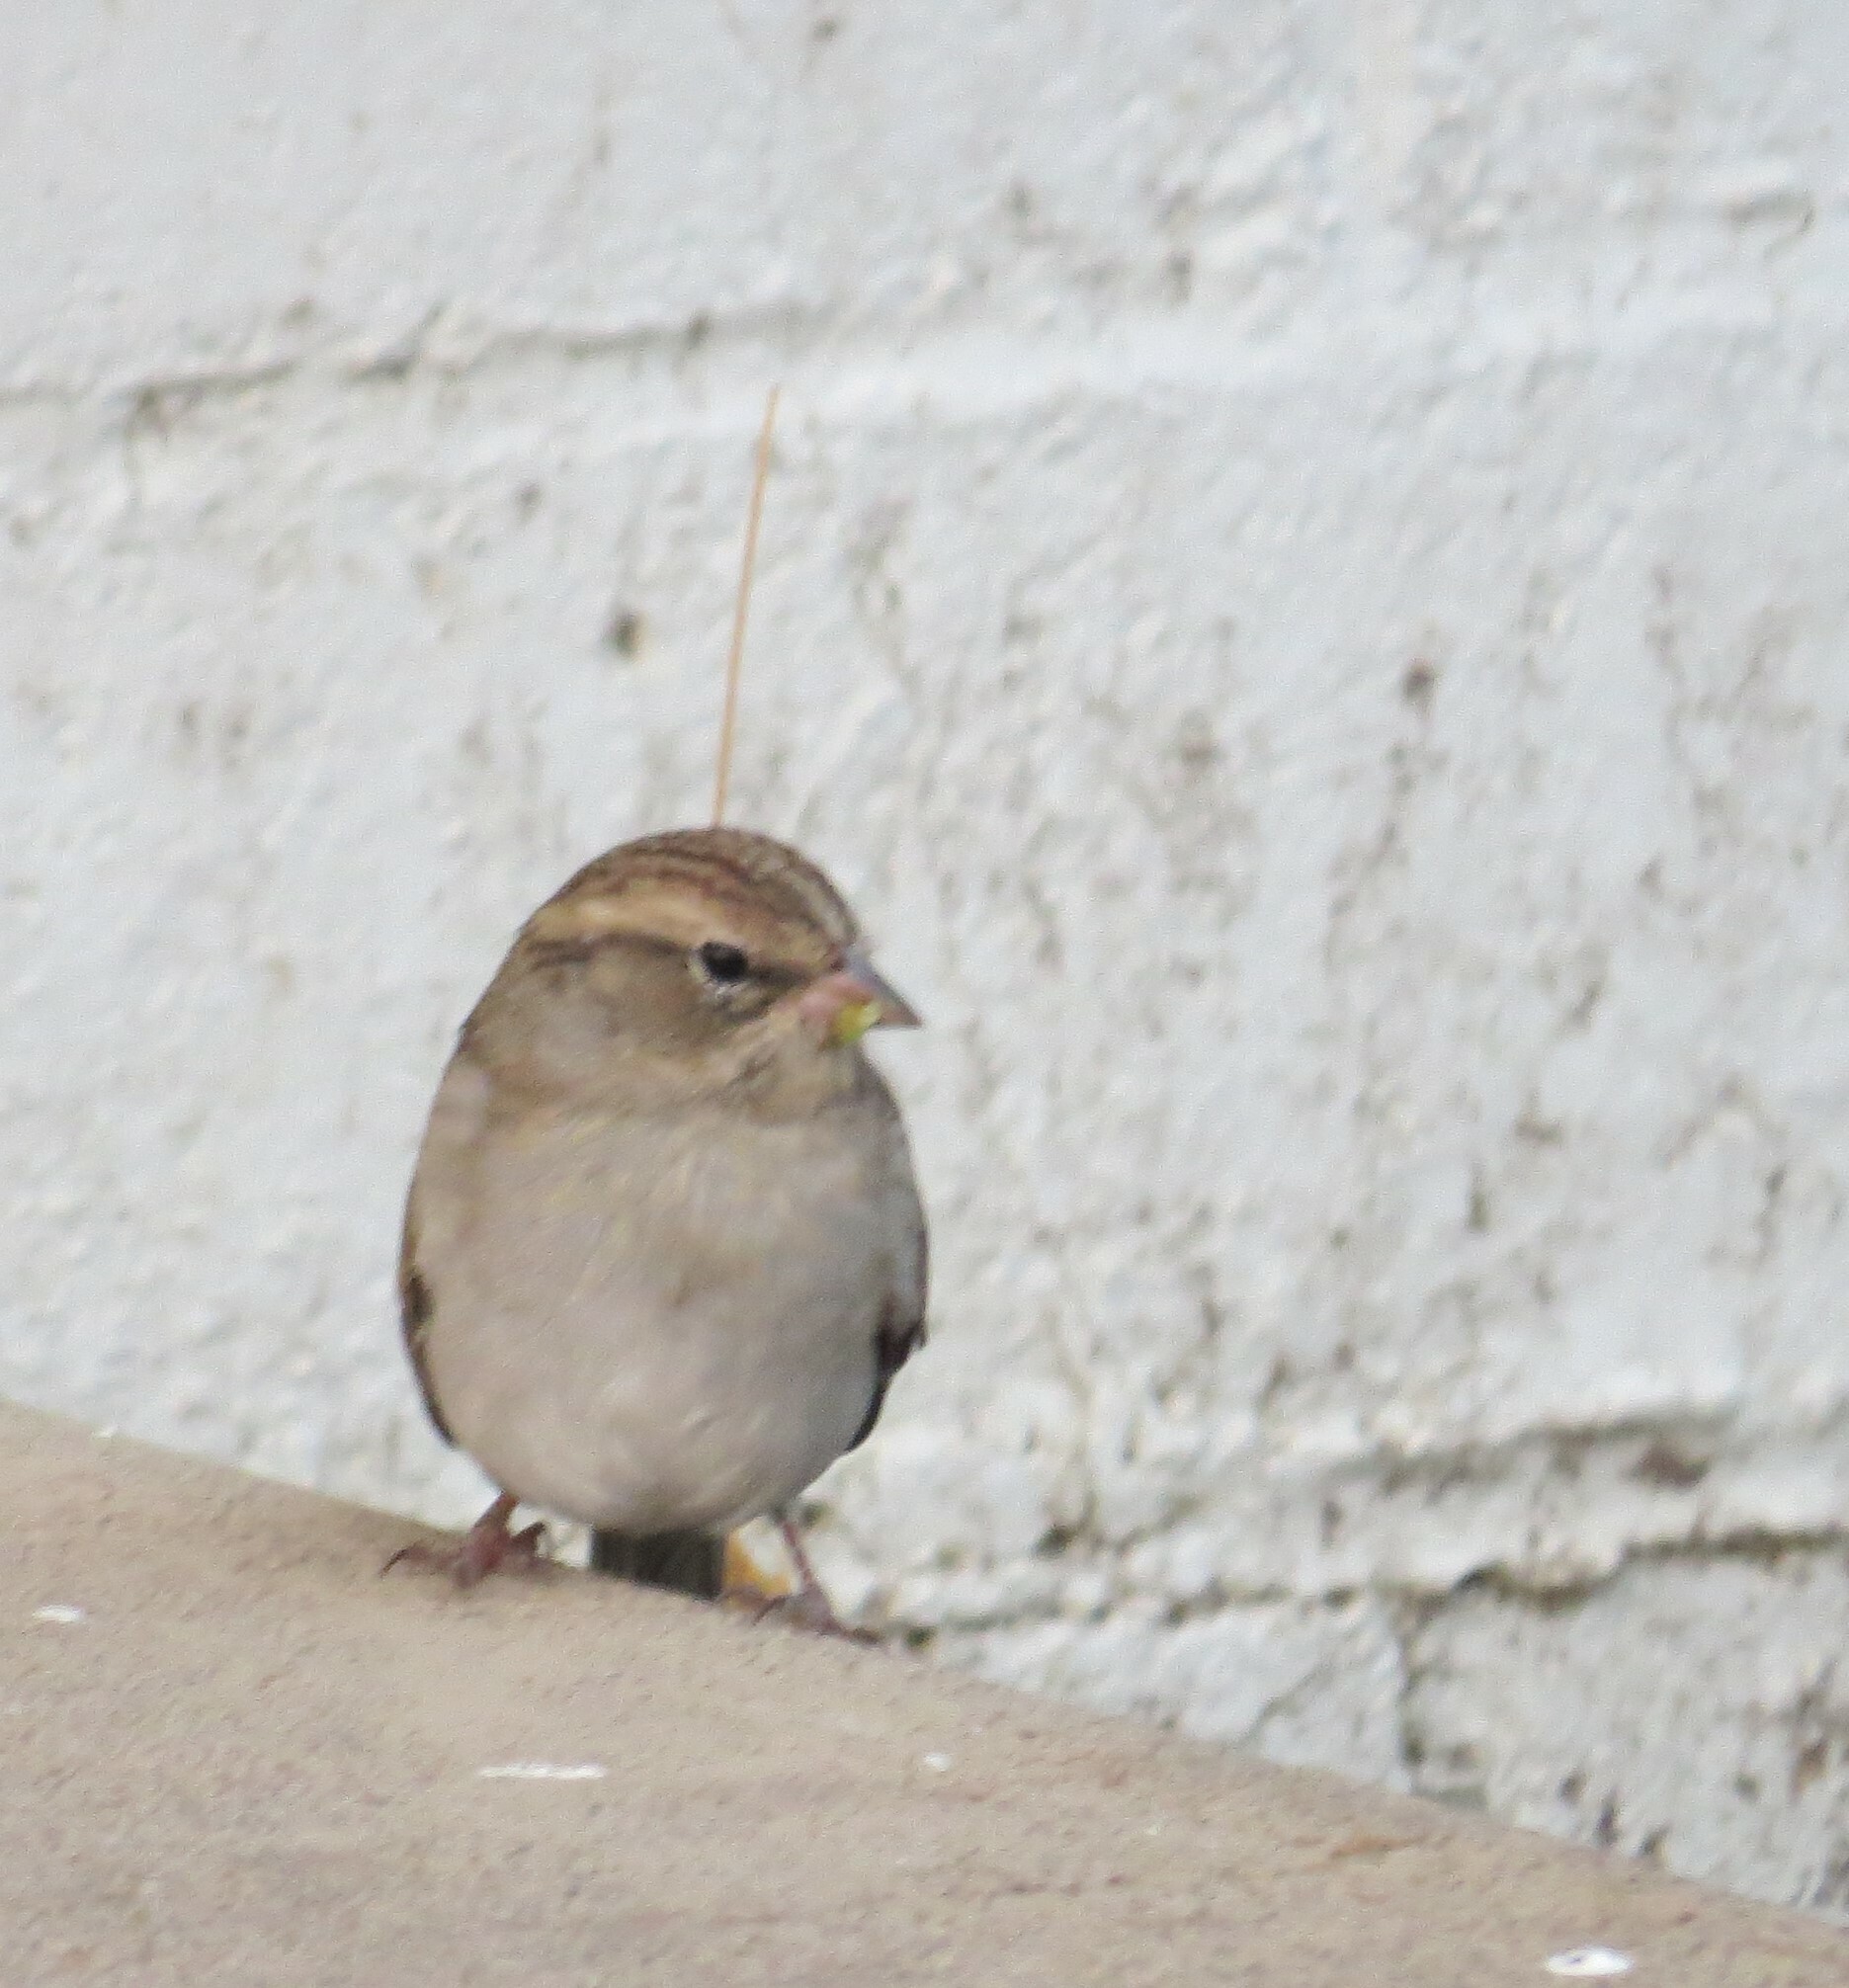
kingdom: Animalia
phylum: Chordata
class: Aves
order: Passeriformes
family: Passerellidae
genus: Spizella
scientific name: Spizella passerina
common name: Chipping sparrow
